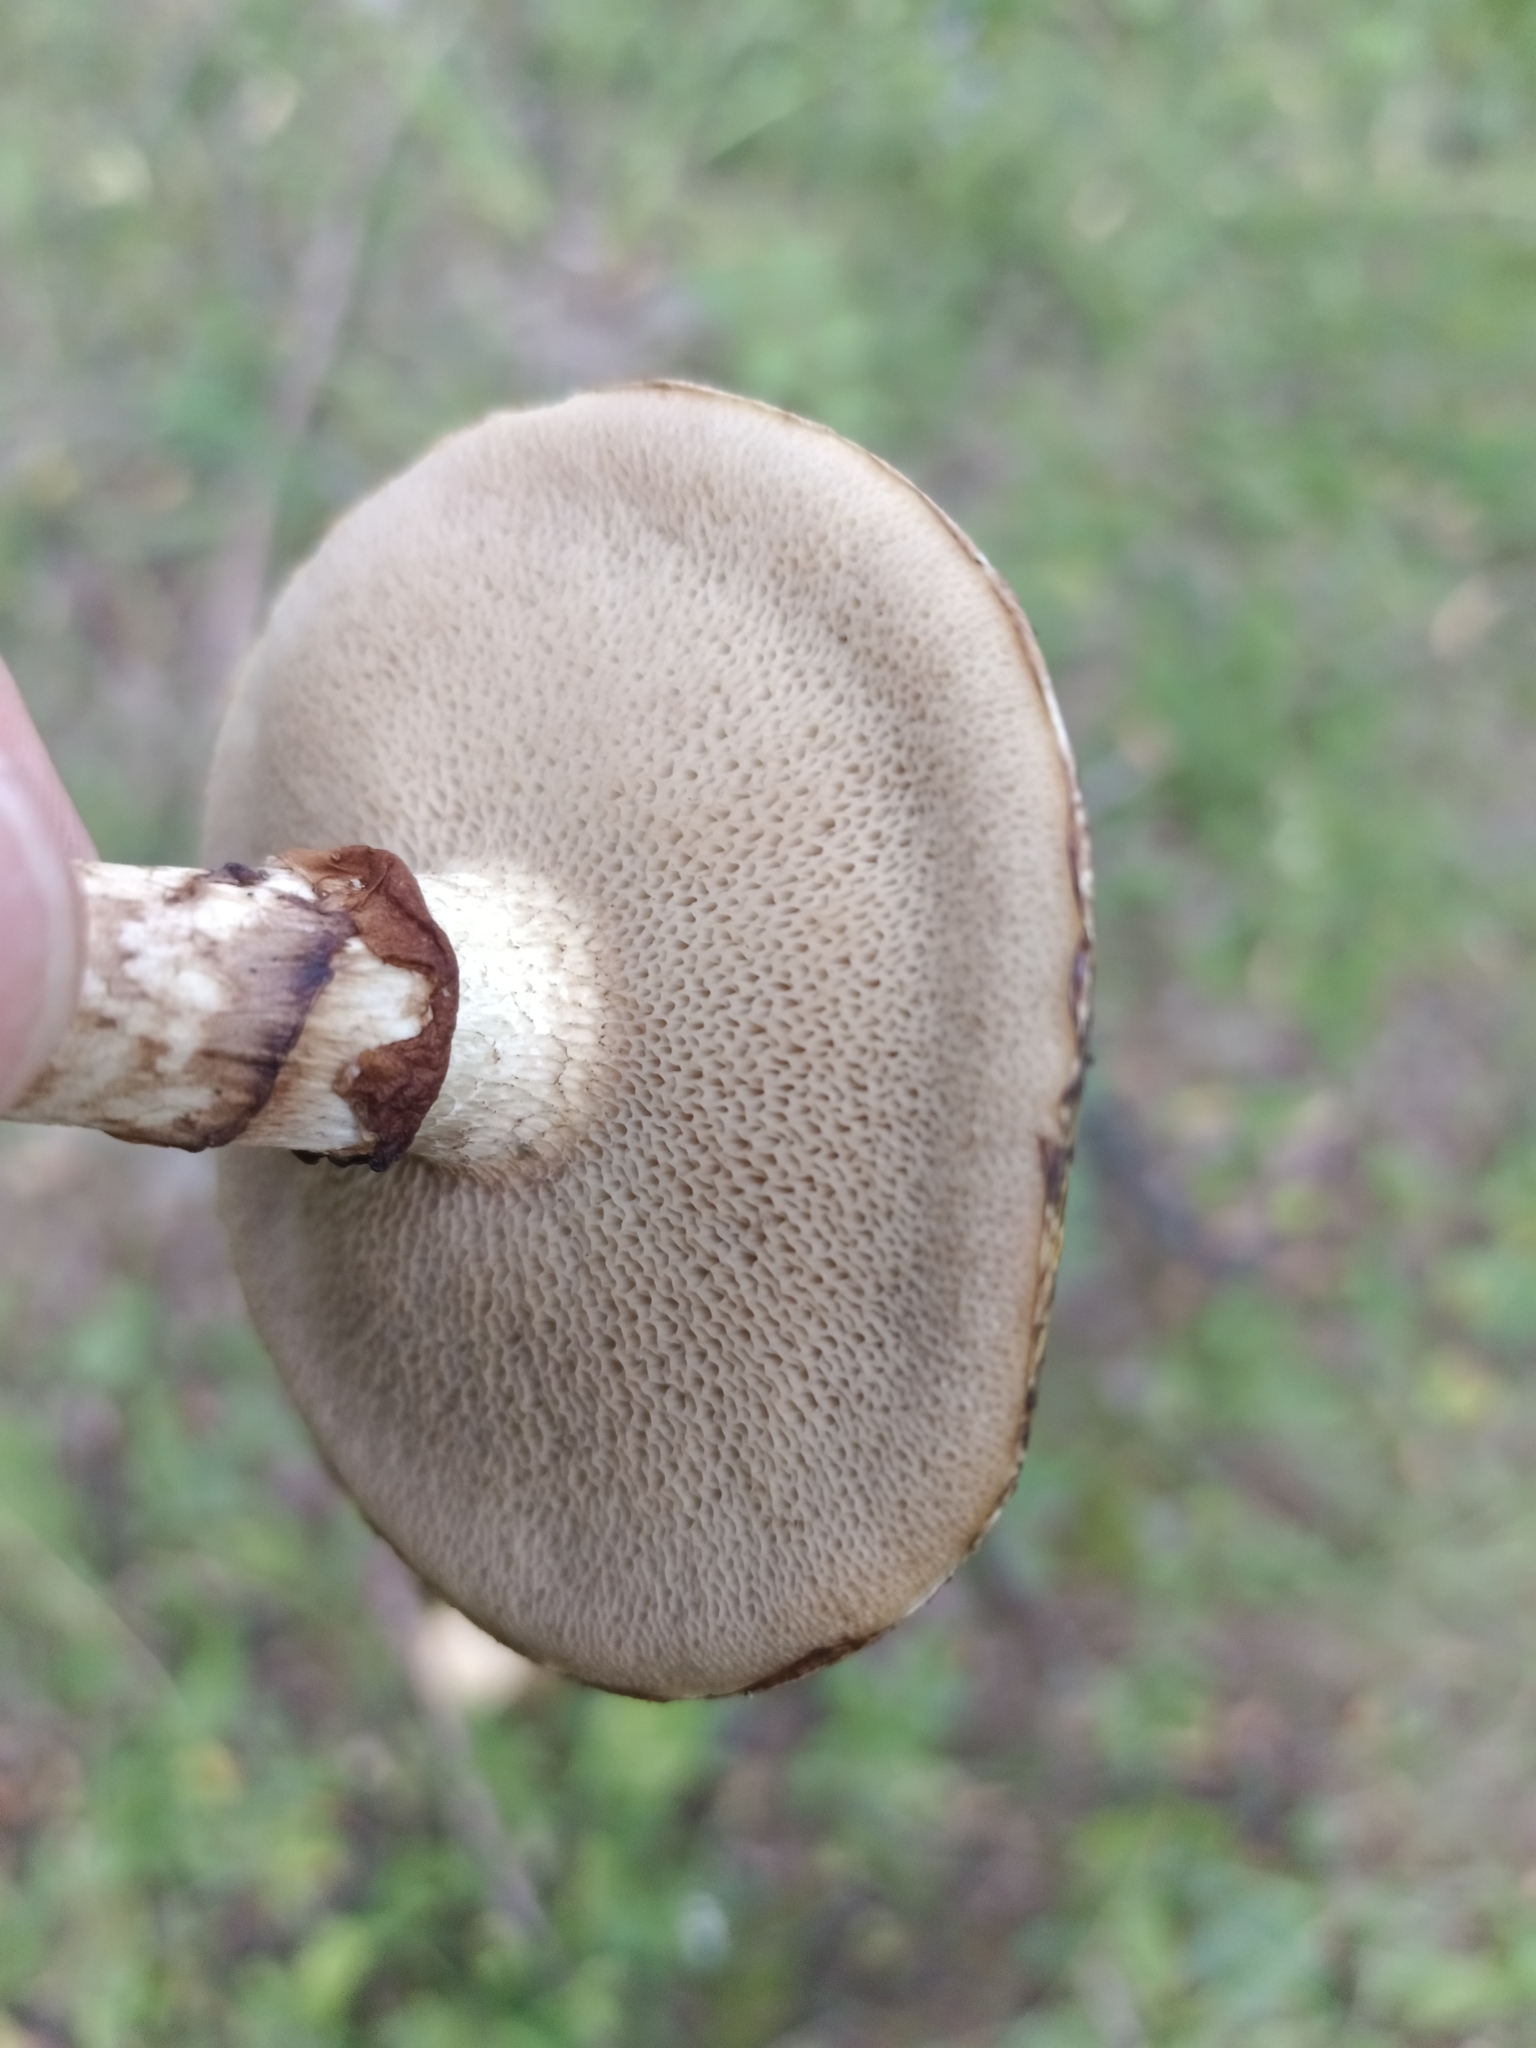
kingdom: Fungi
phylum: Basidiomycota
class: Agaricomycetes
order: Boletales
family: Suillaceae
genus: Suillus
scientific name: Suillus viscidus
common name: Sticky bolete
